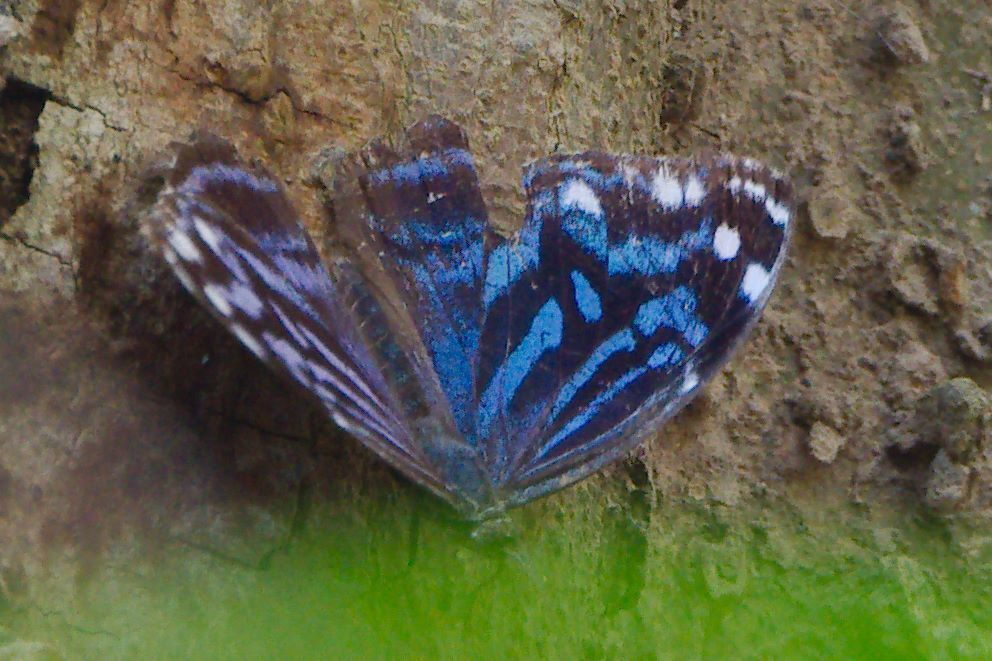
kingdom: Animalia
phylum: Arthropoda
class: Insecta
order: Lepidoptera
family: Nymphalidae
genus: Myscelia
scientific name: Myscelia ethusa
